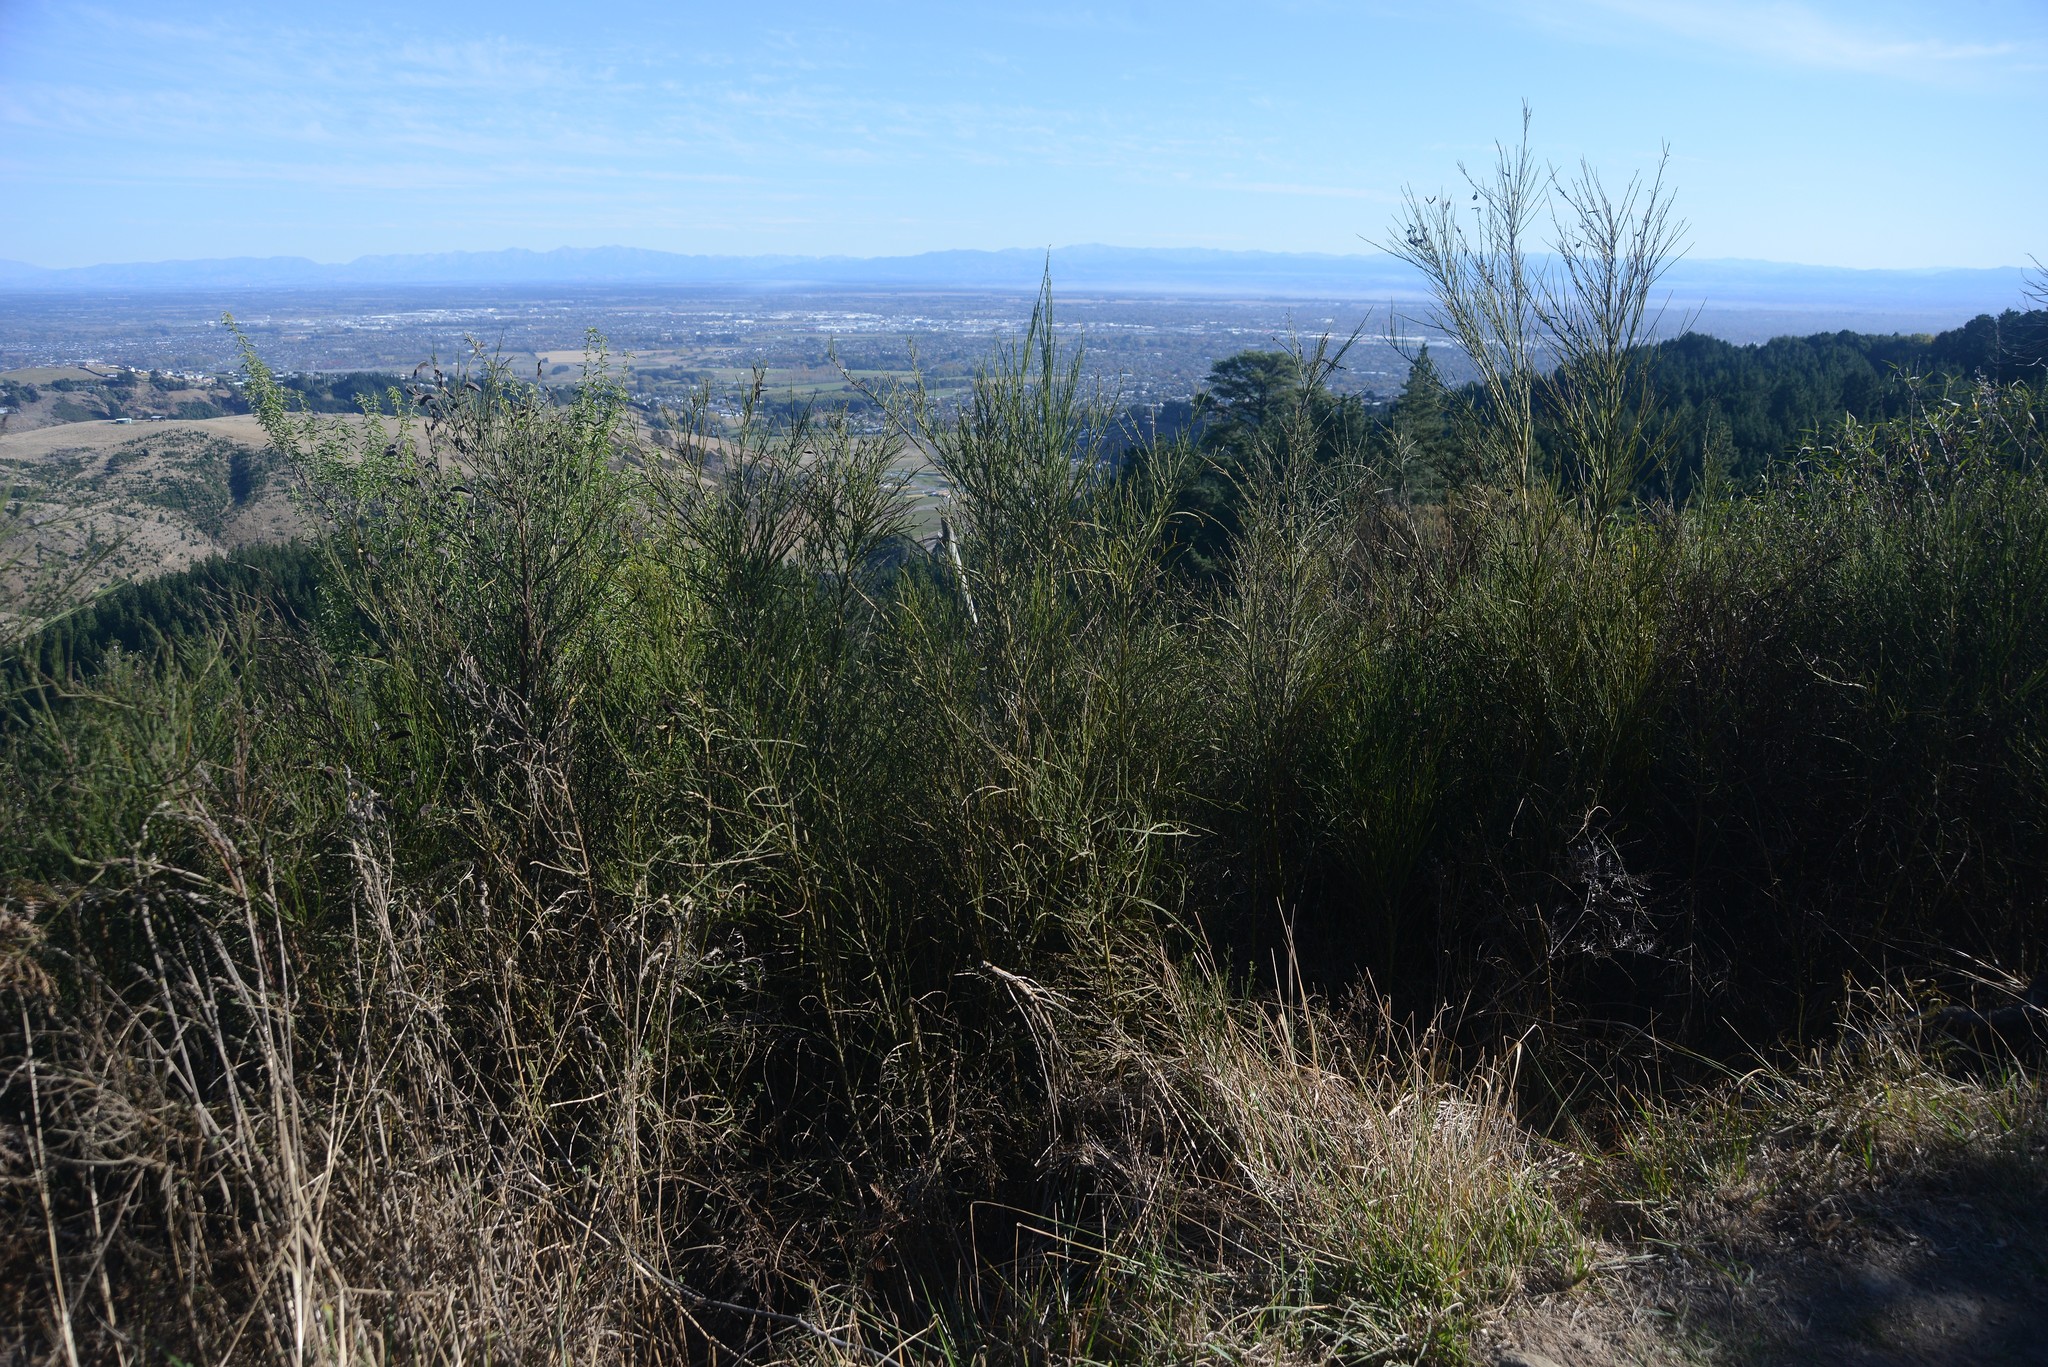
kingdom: Plantae
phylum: Tracheophyta
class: Magnoliopsida
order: Fabales
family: Fabaceae
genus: Cytisus
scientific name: Cytisus scoparius
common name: Scotch broom
